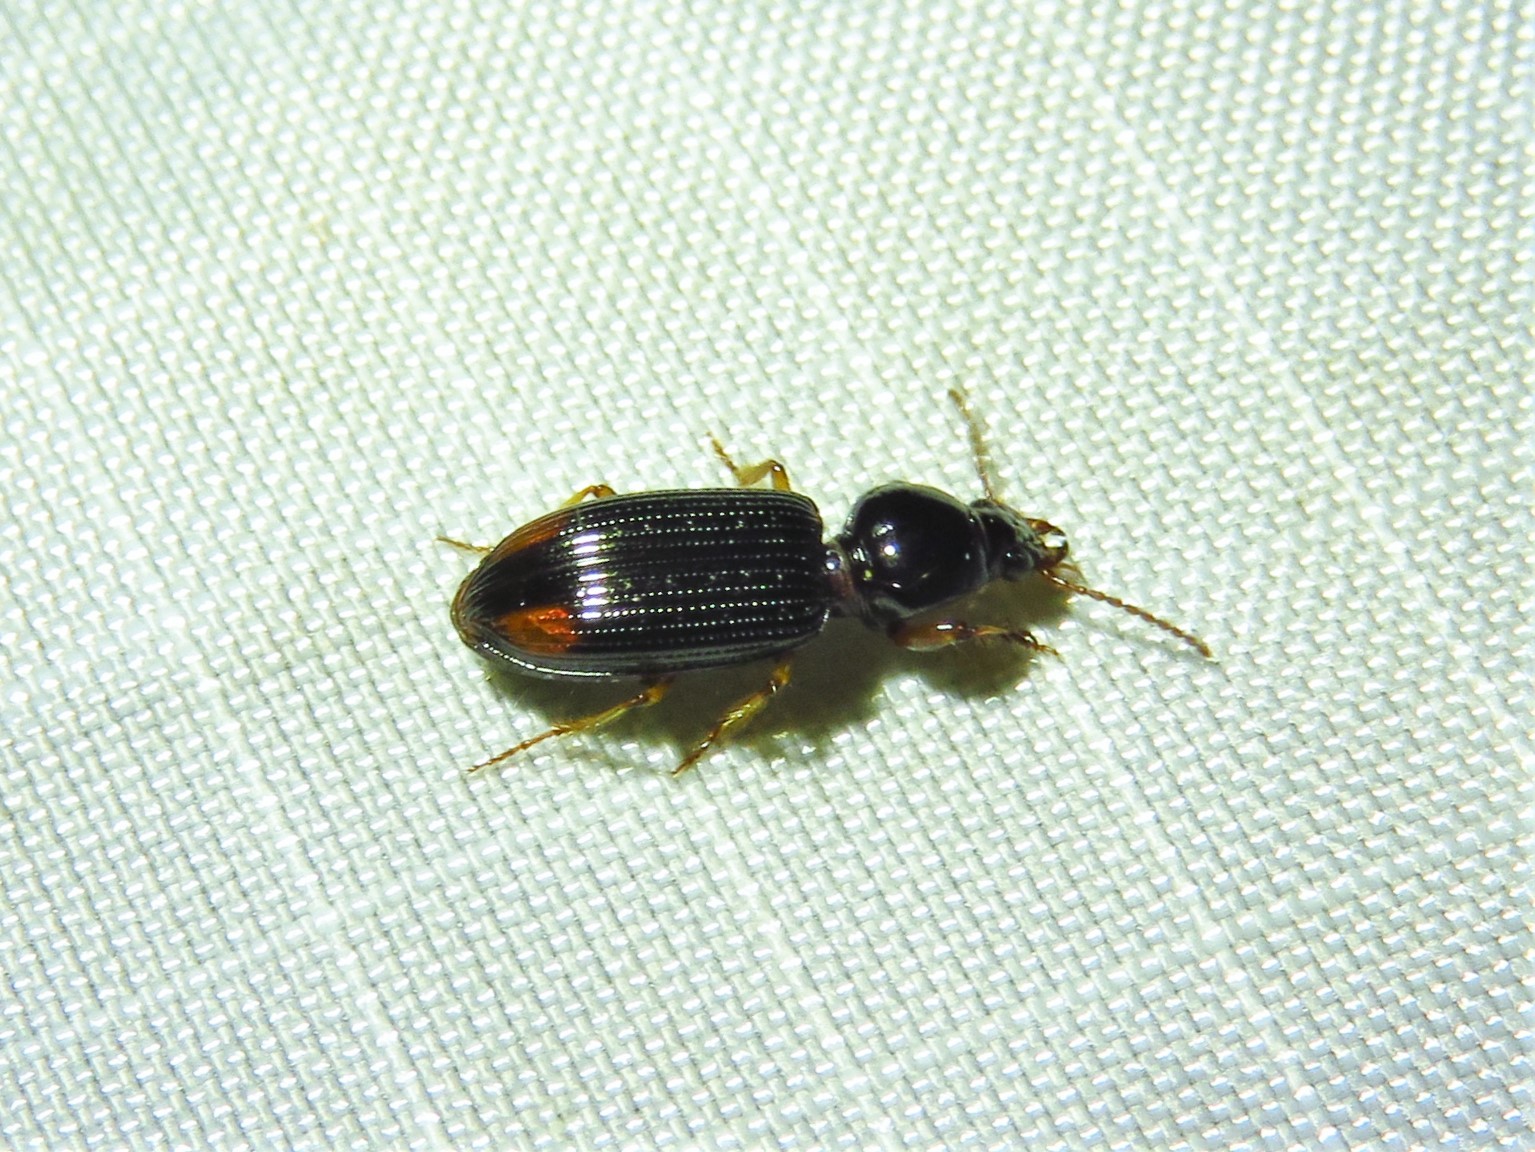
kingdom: Animalia
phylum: Arthropoda
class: Insecta
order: Coleoptera
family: Carabidae
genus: Aspidoglossa
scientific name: Aspidoglossa subangulata
